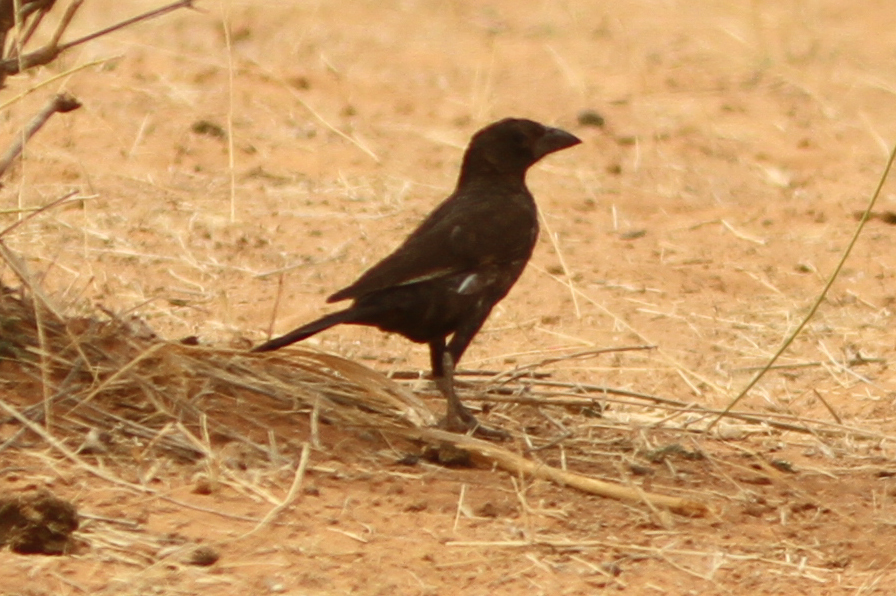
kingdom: Animalia
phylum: Chordata
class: Aves
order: Passeriformes
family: Ploceidae
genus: Bubalornis
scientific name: Bubalornis albirostris
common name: White-billed buffalo weaver
